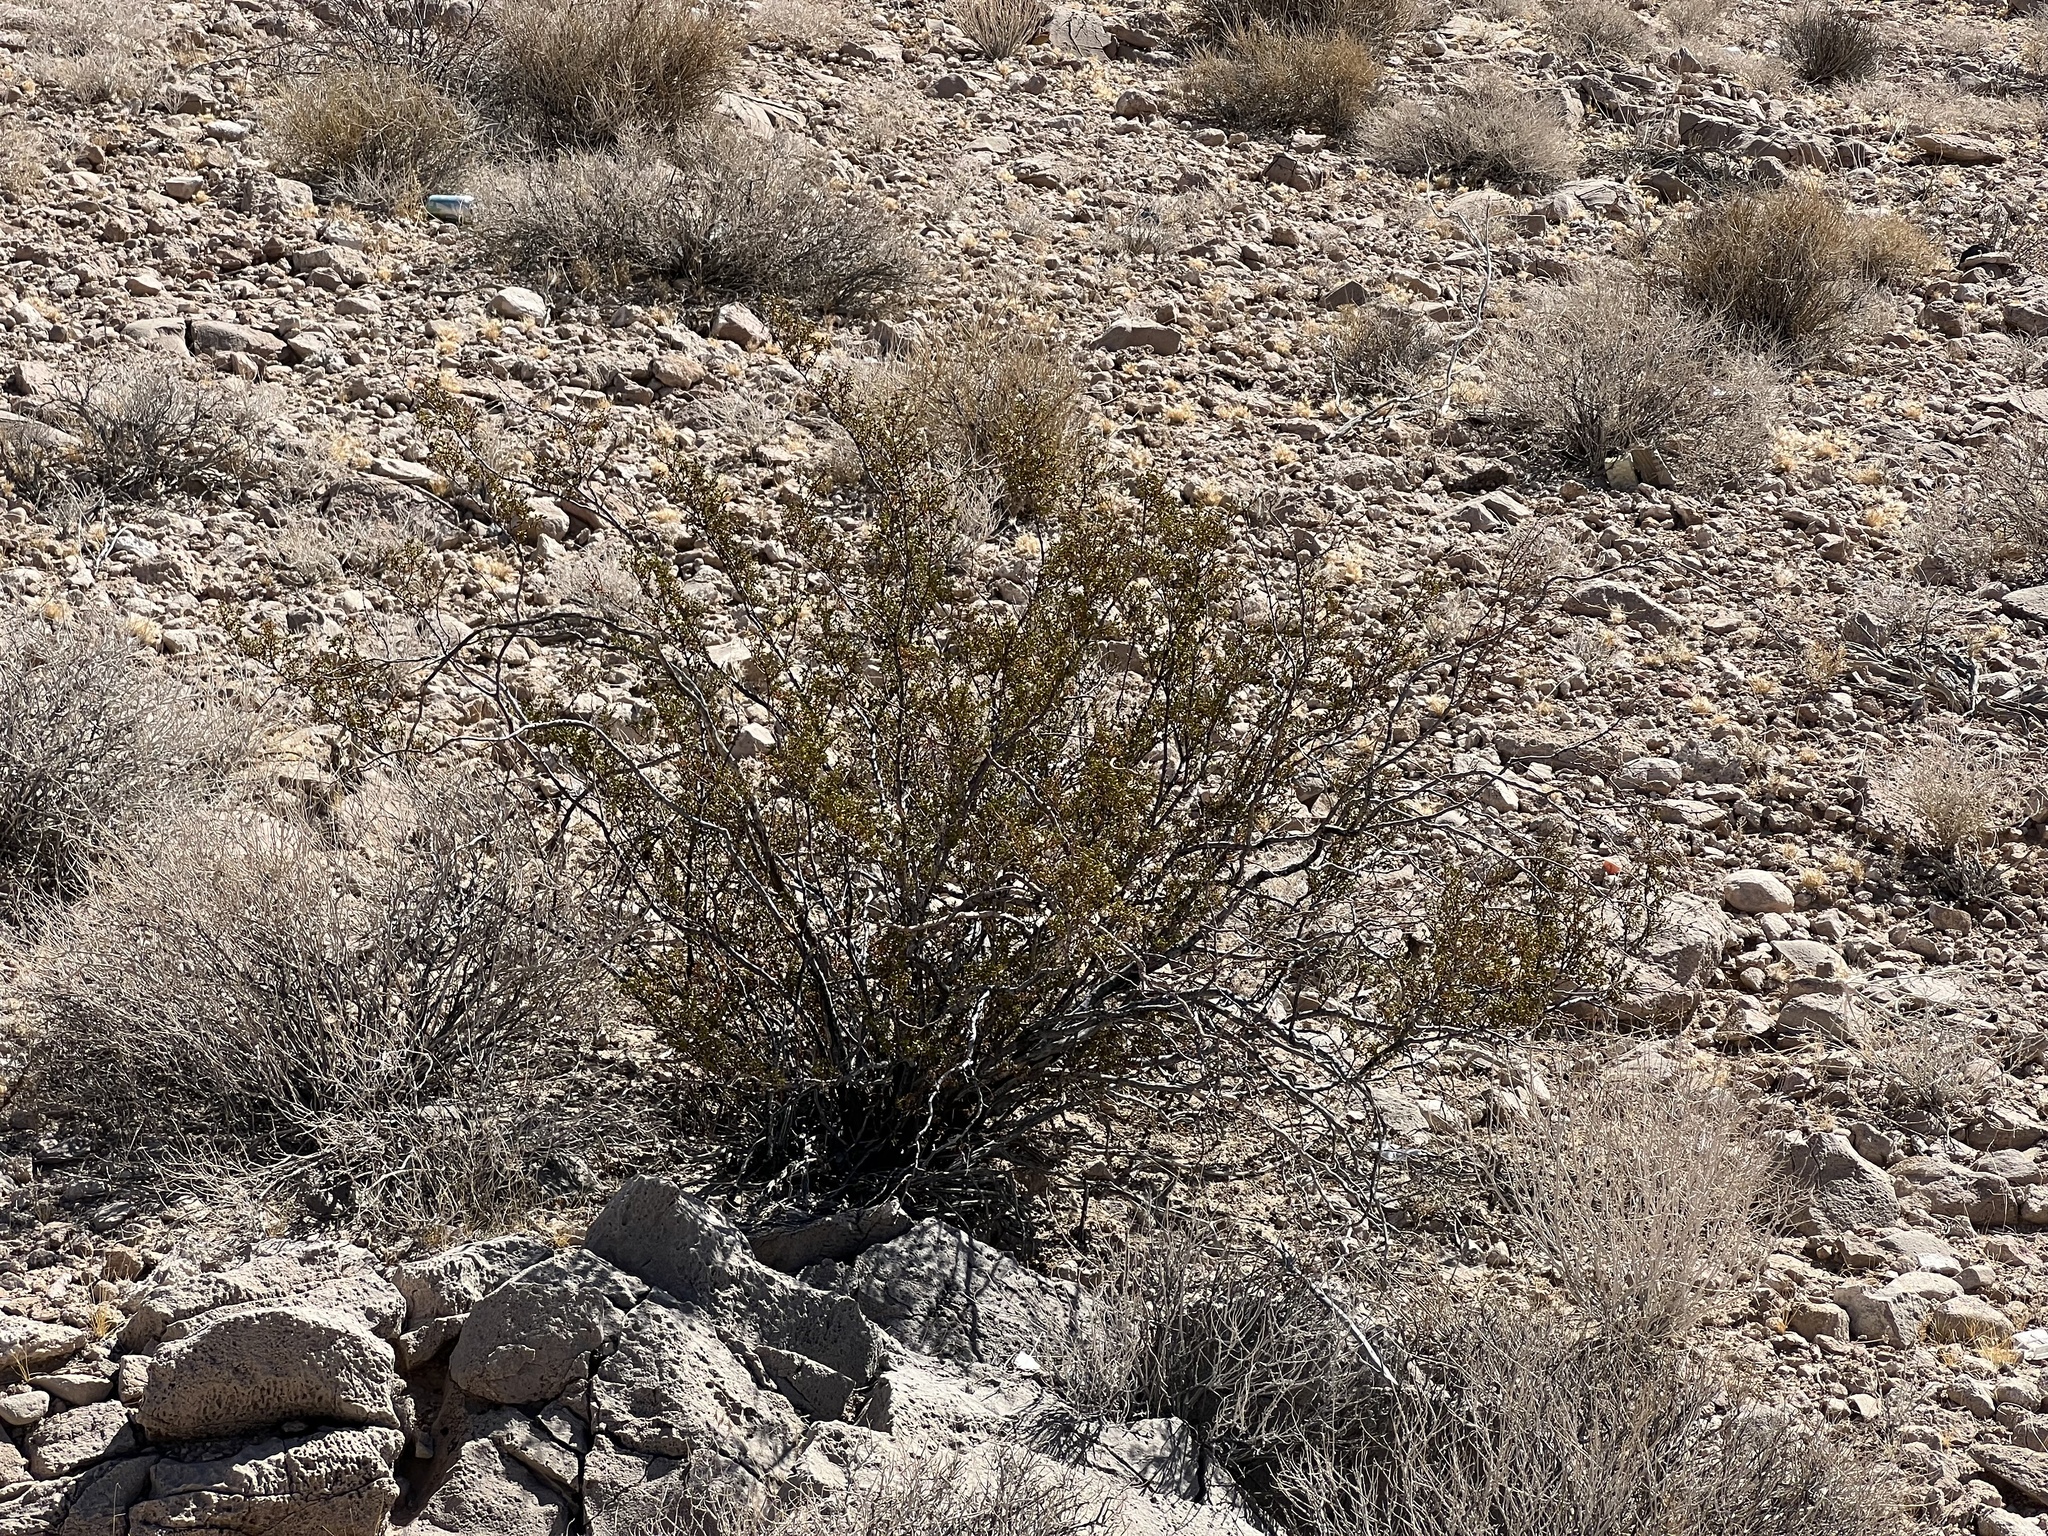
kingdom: Plantae
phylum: Tracheophyta
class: Magnoliopsida
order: Zygophyllales
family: Zygophyllaceae
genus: Larrea
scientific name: Larrea tridentata
